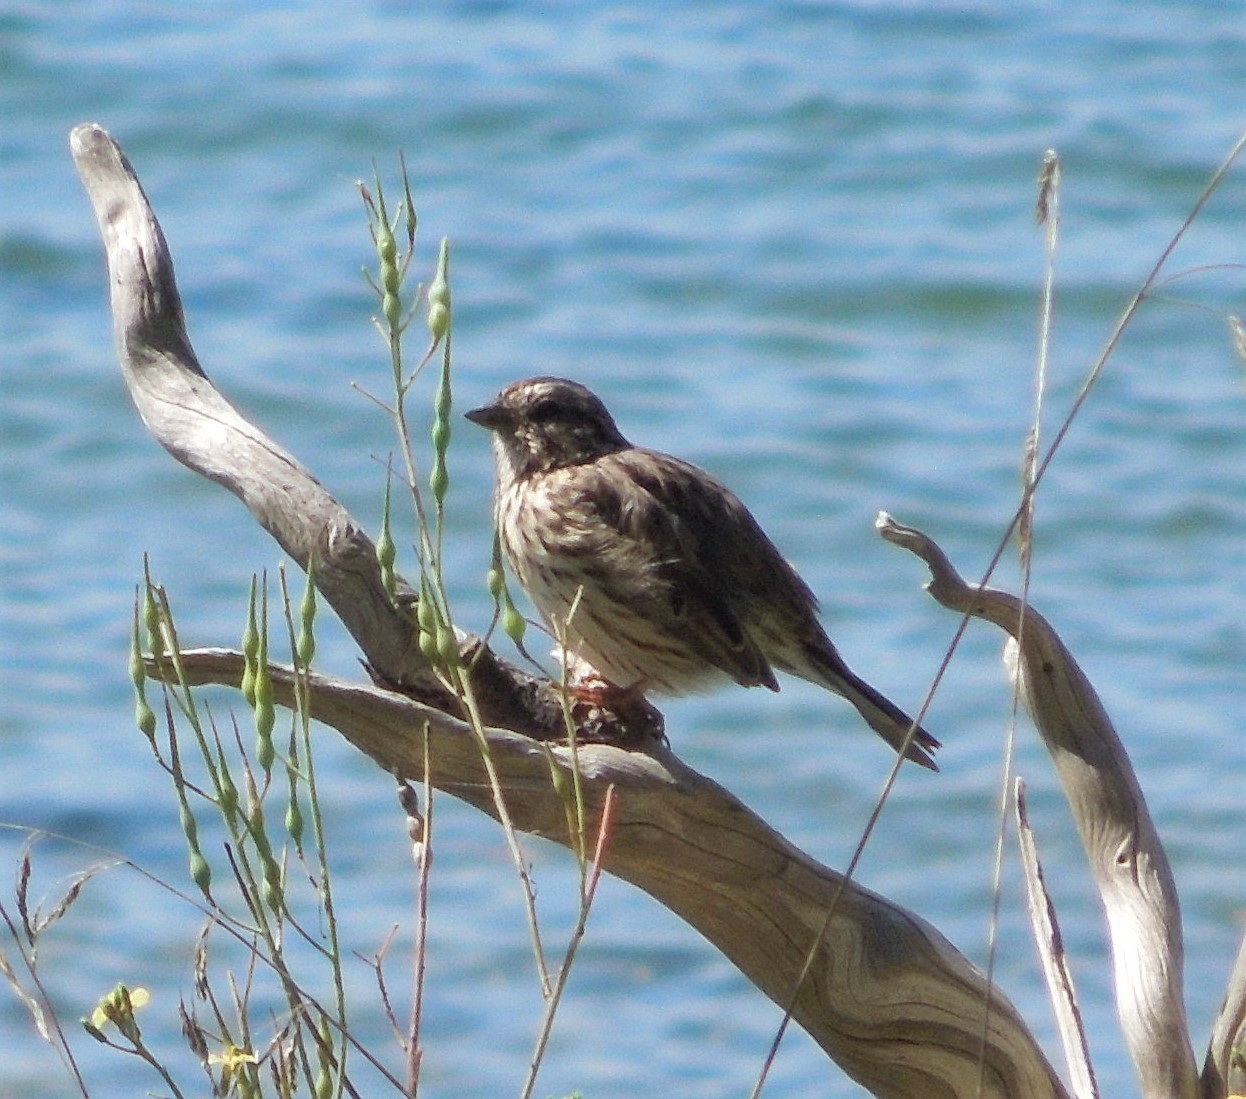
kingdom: Animalia
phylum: Chordata
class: Aves
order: Passeriformes
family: Passerellidae
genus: Melospiza
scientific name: Melospiza melodia
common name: Song sparrow
